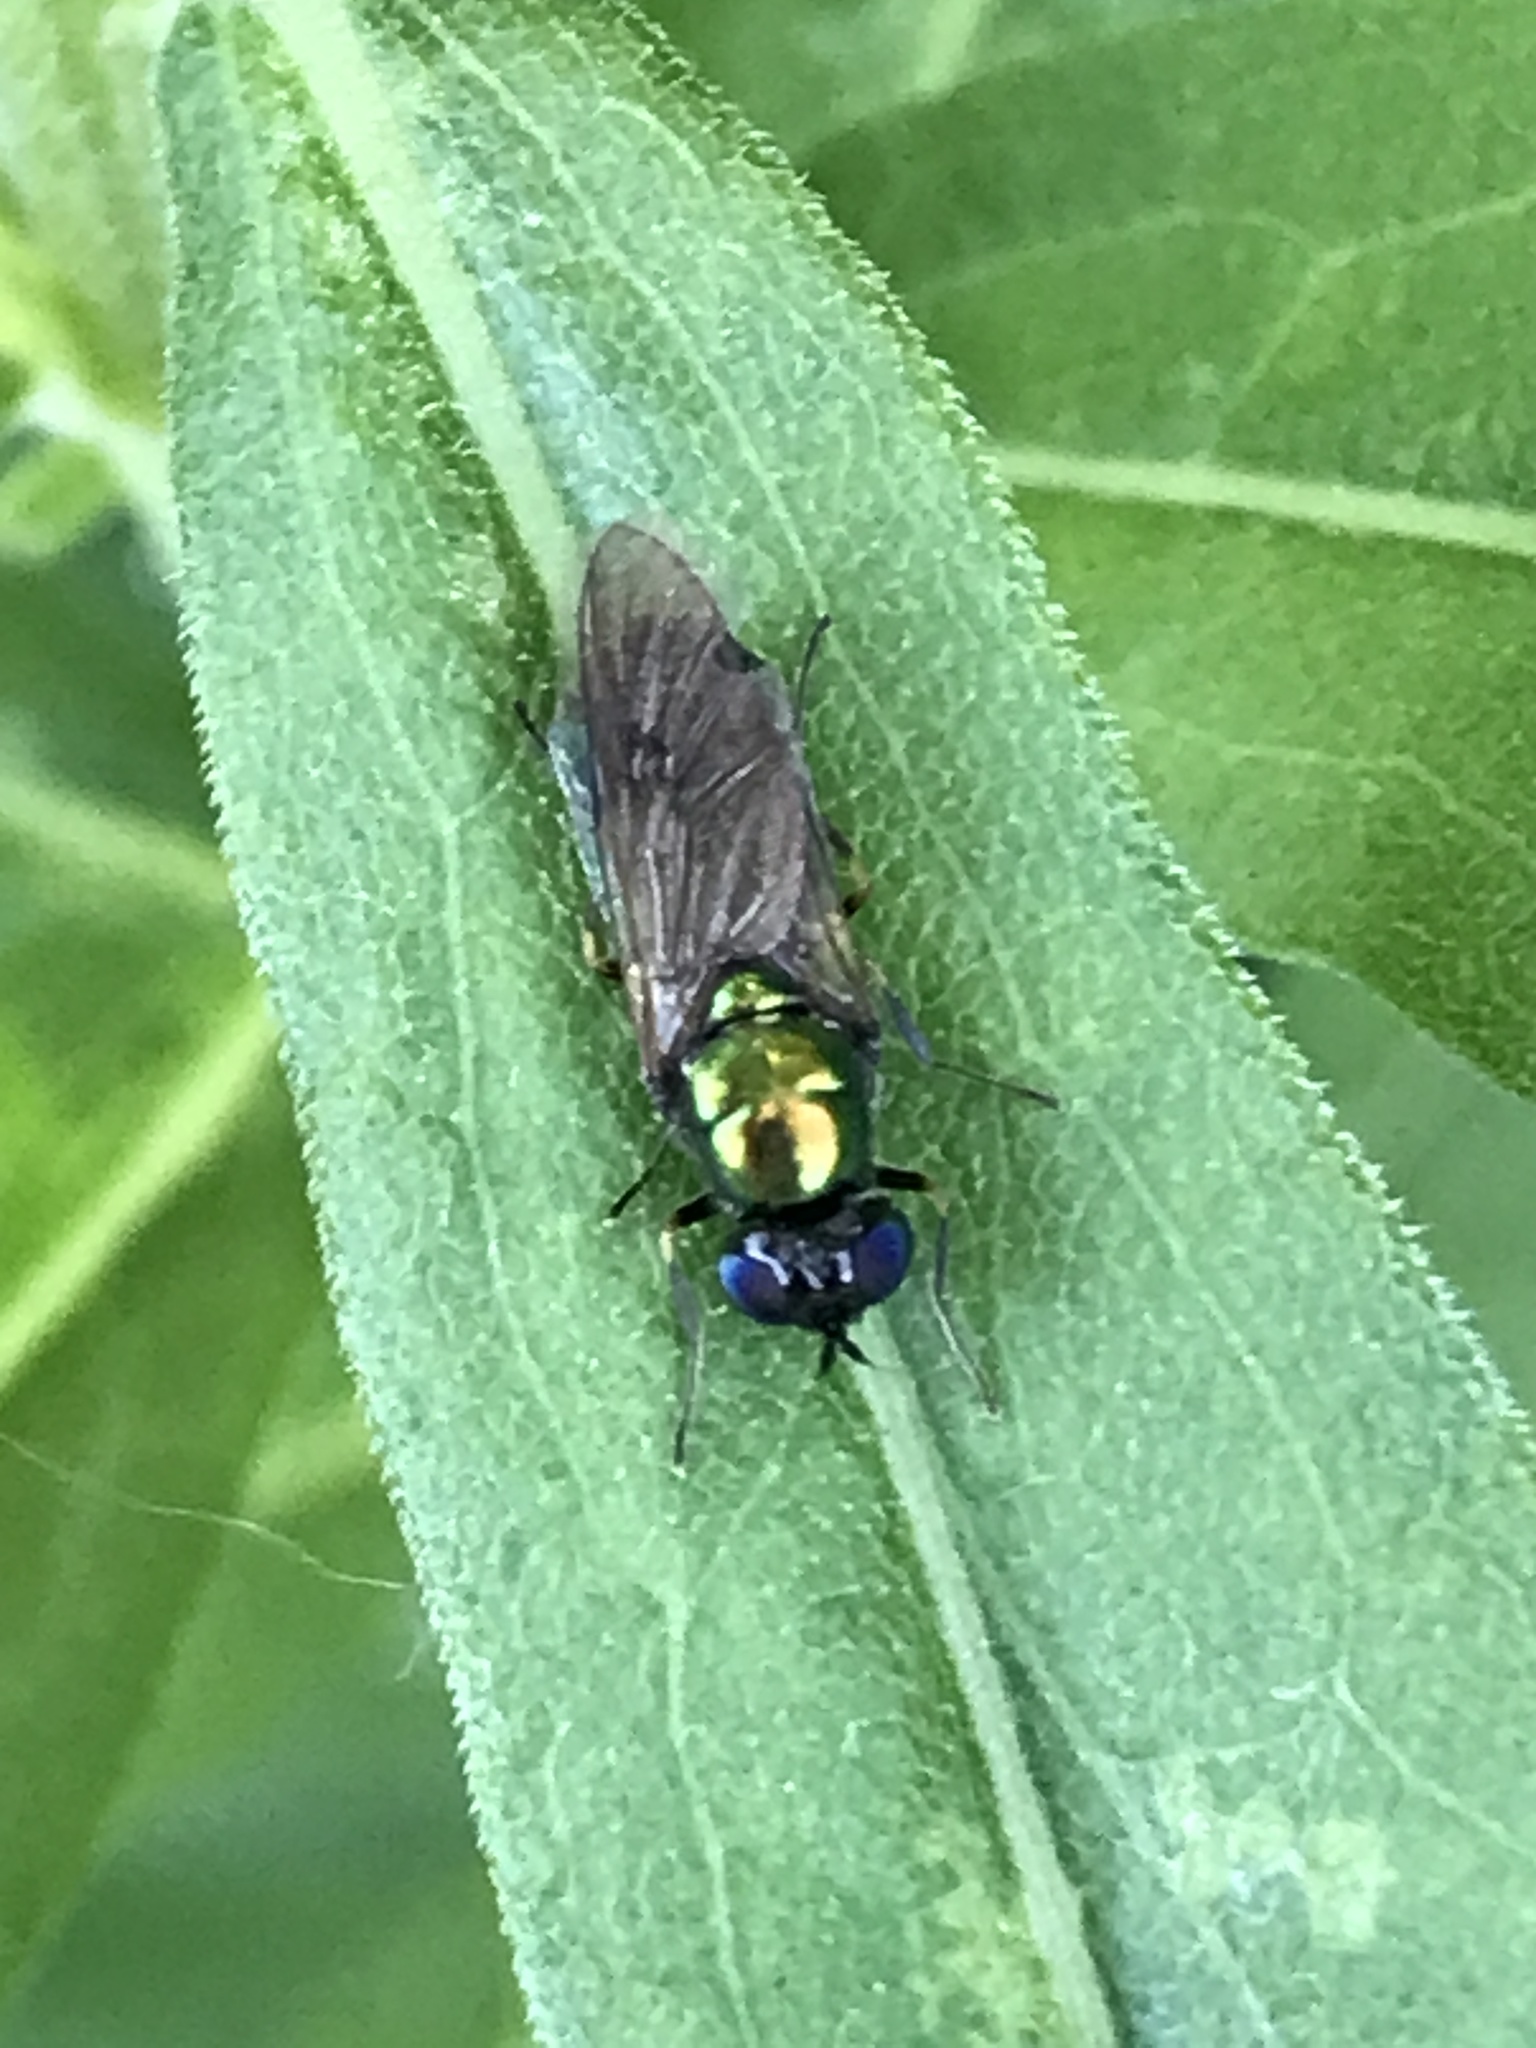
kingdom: Animalia
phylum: Arthropoda
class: Insecta
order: Diptera
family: Stratiomyidae
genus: Chloromyia
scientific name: Chloromyia formosa
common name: Soldier fly
